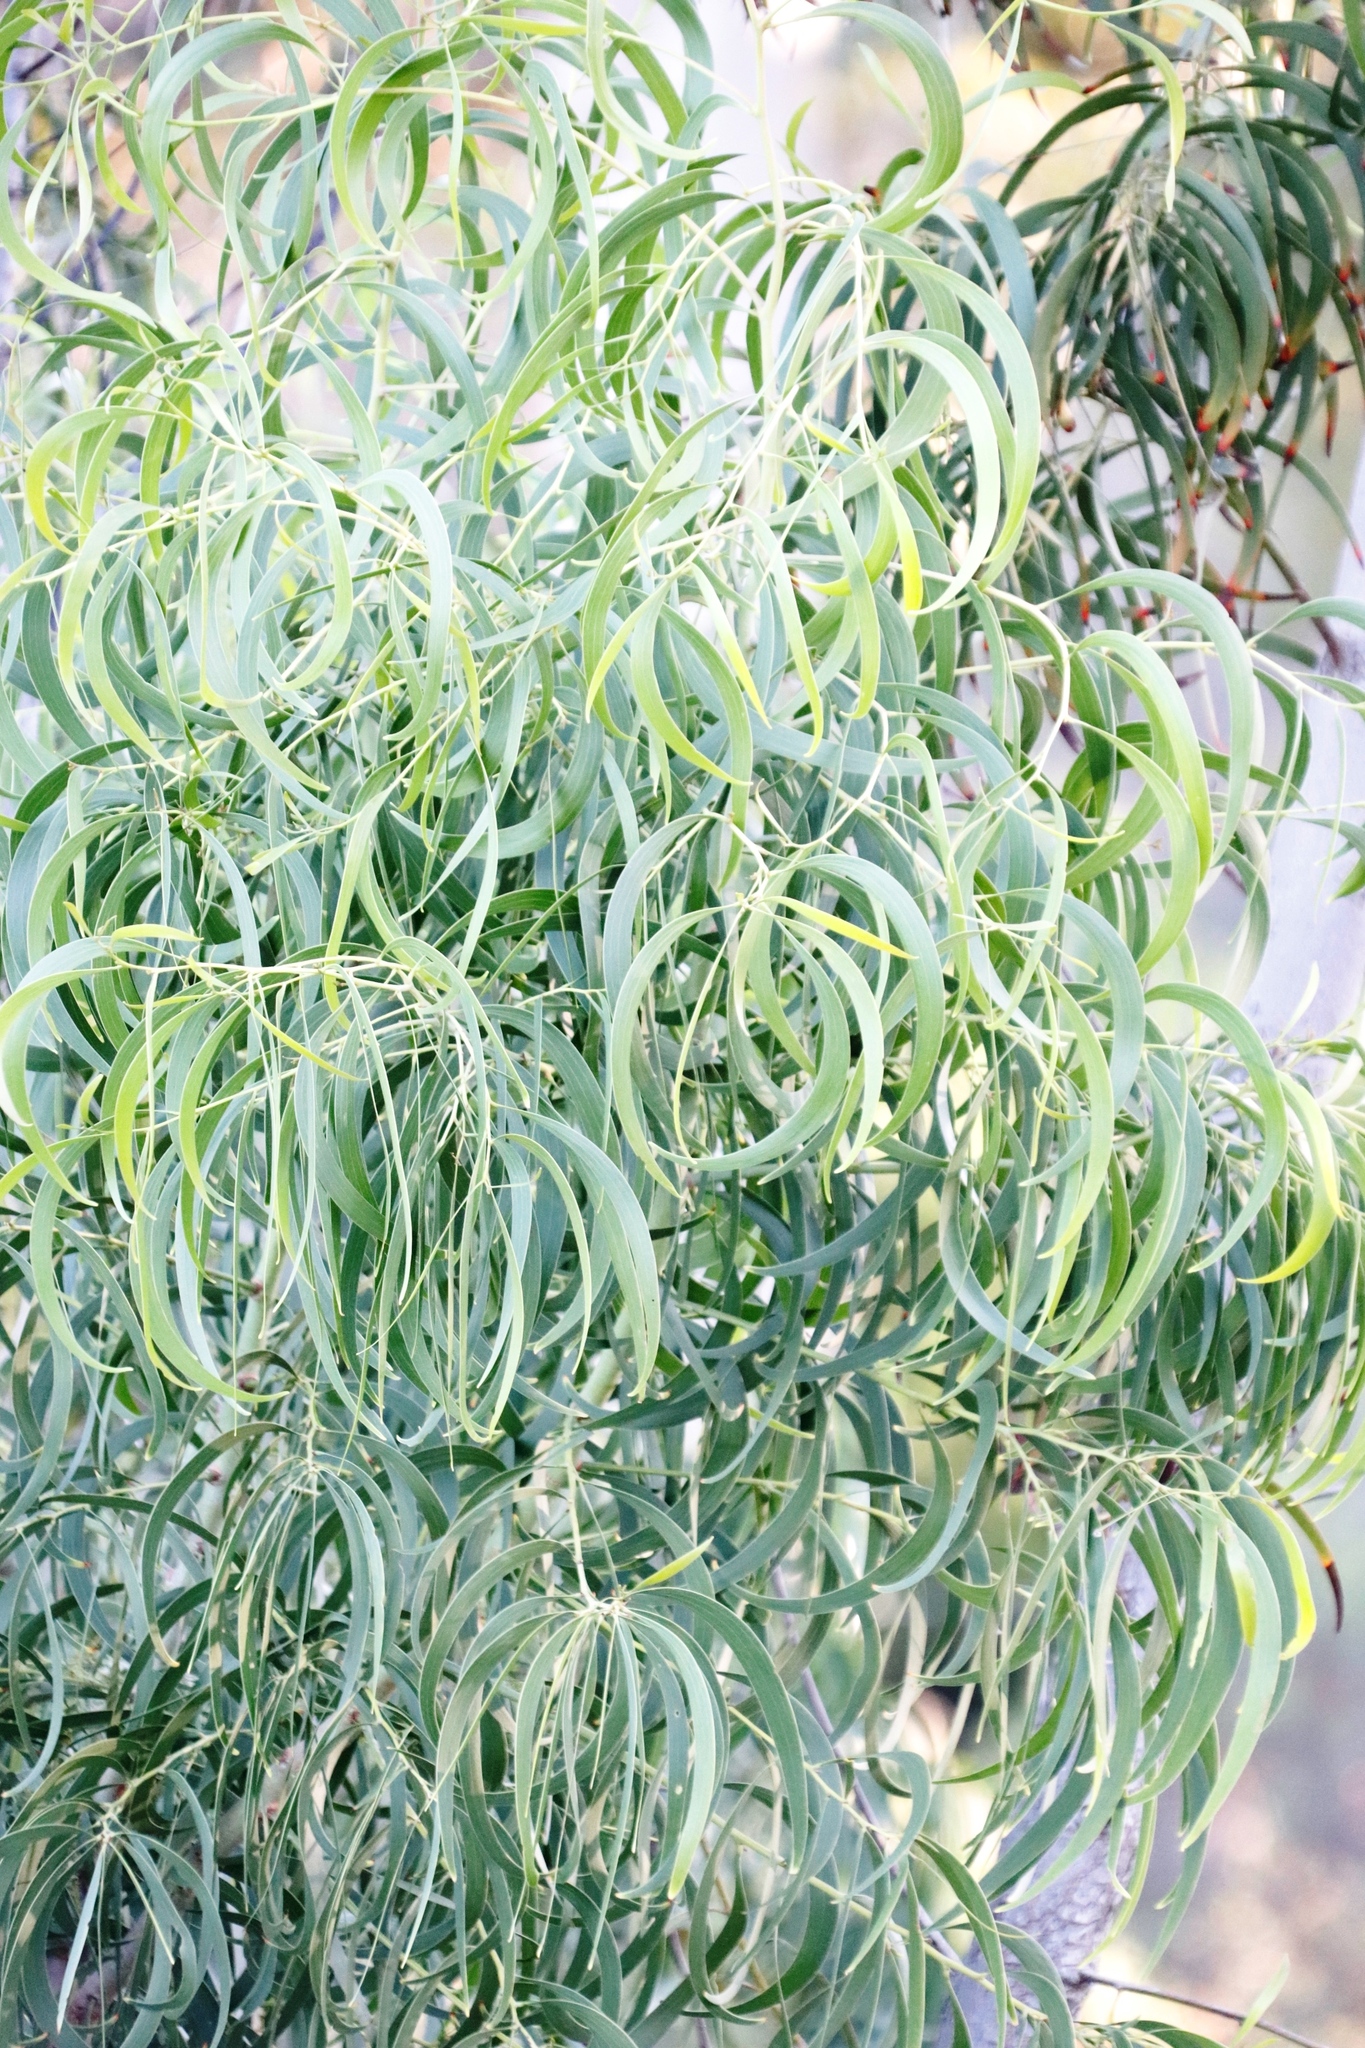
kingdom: Plantae
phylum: Tracheophyta
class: Magnoliopsida
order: Fabales
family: Fabaceae
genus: Acacia
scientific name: Acacia implexa
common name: Black wattle
